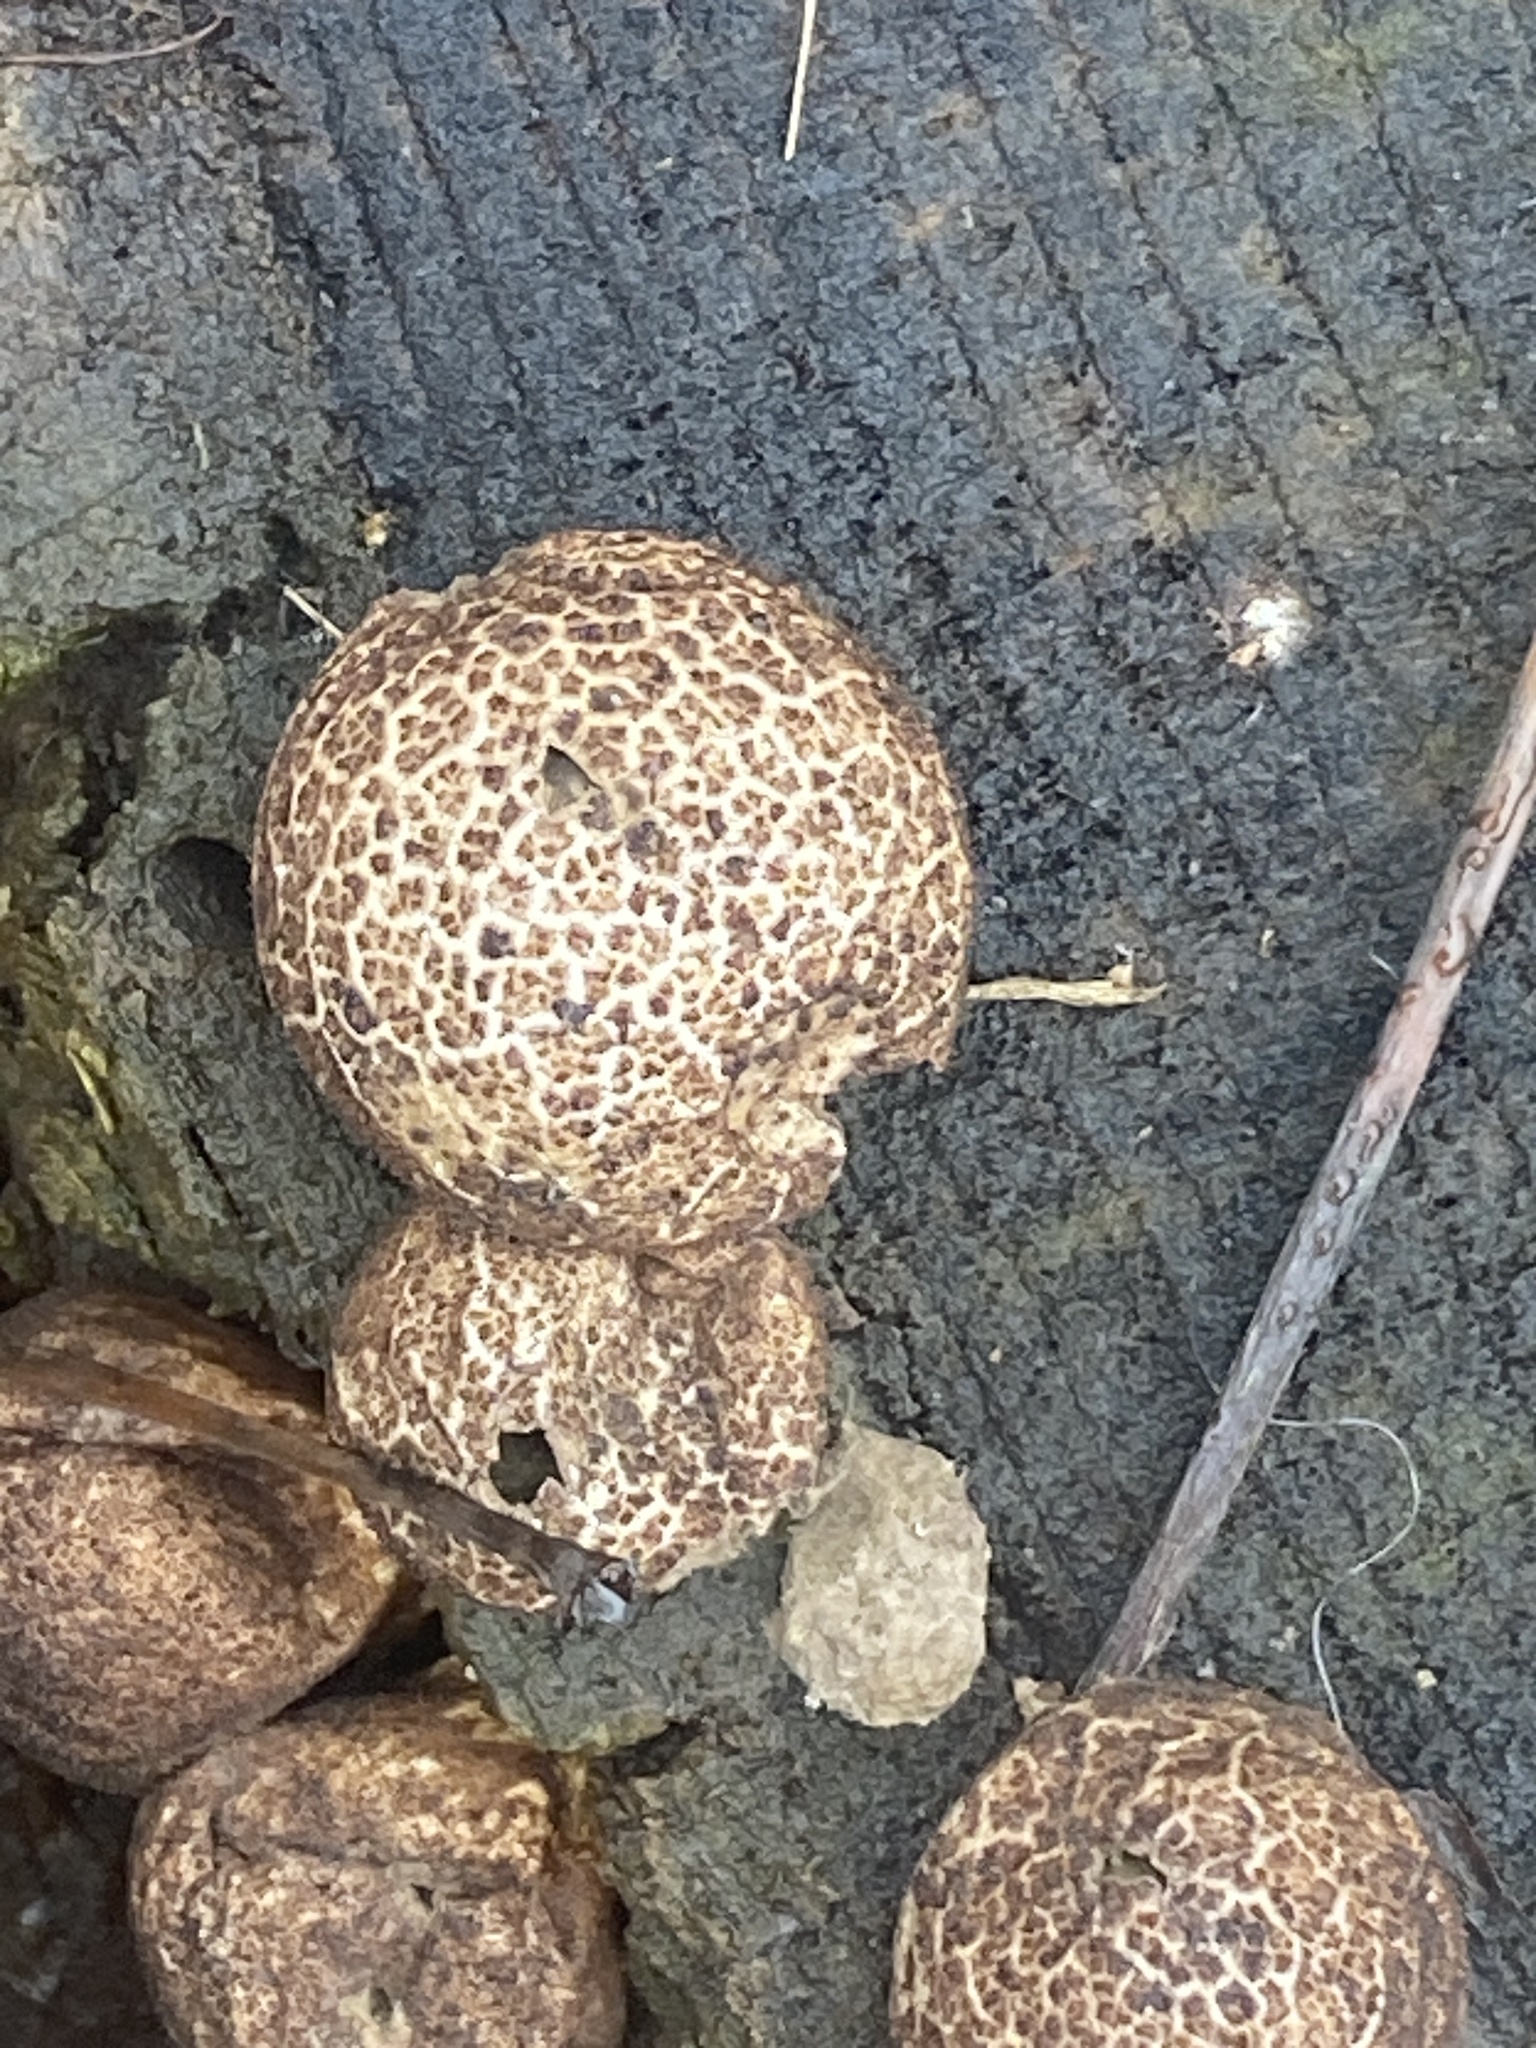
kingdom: Fungi
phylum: Basidiomycota
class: Agaricomycetes
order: Agaricales
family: Lycoperdaceae
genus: Apioperdon
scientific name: Apioperdon pyriforme
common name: Pear-shaped puffball
